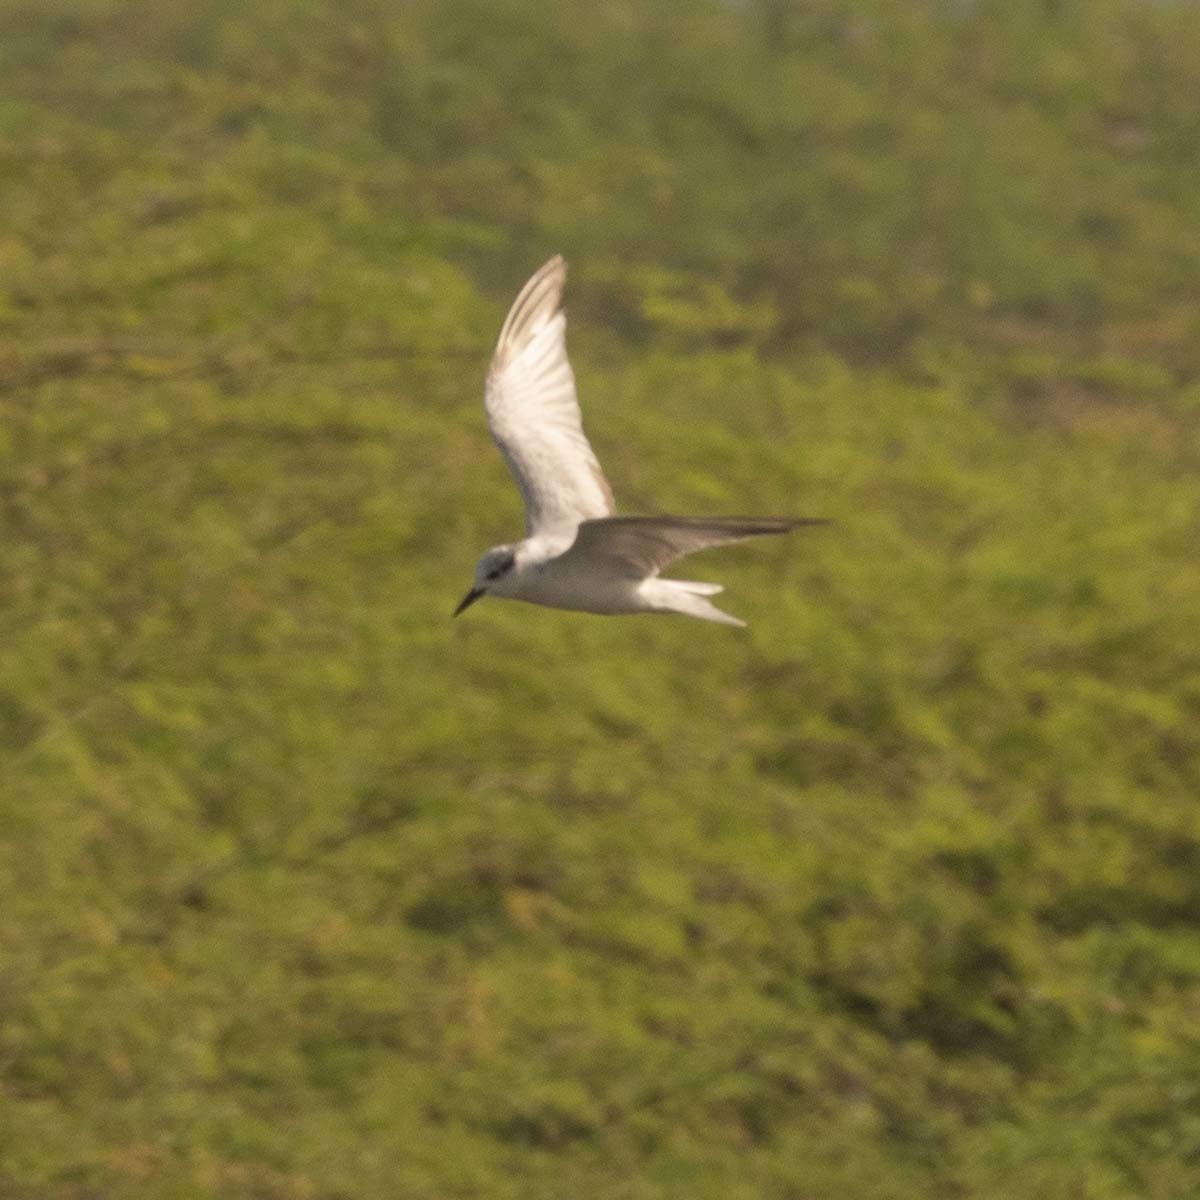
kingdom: Animalia
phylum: Chordata
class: Aves
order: Charadriiformes
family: Laridae
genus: Chlidonias
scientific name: Chlidonias hybrida
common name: Whiskered tern
